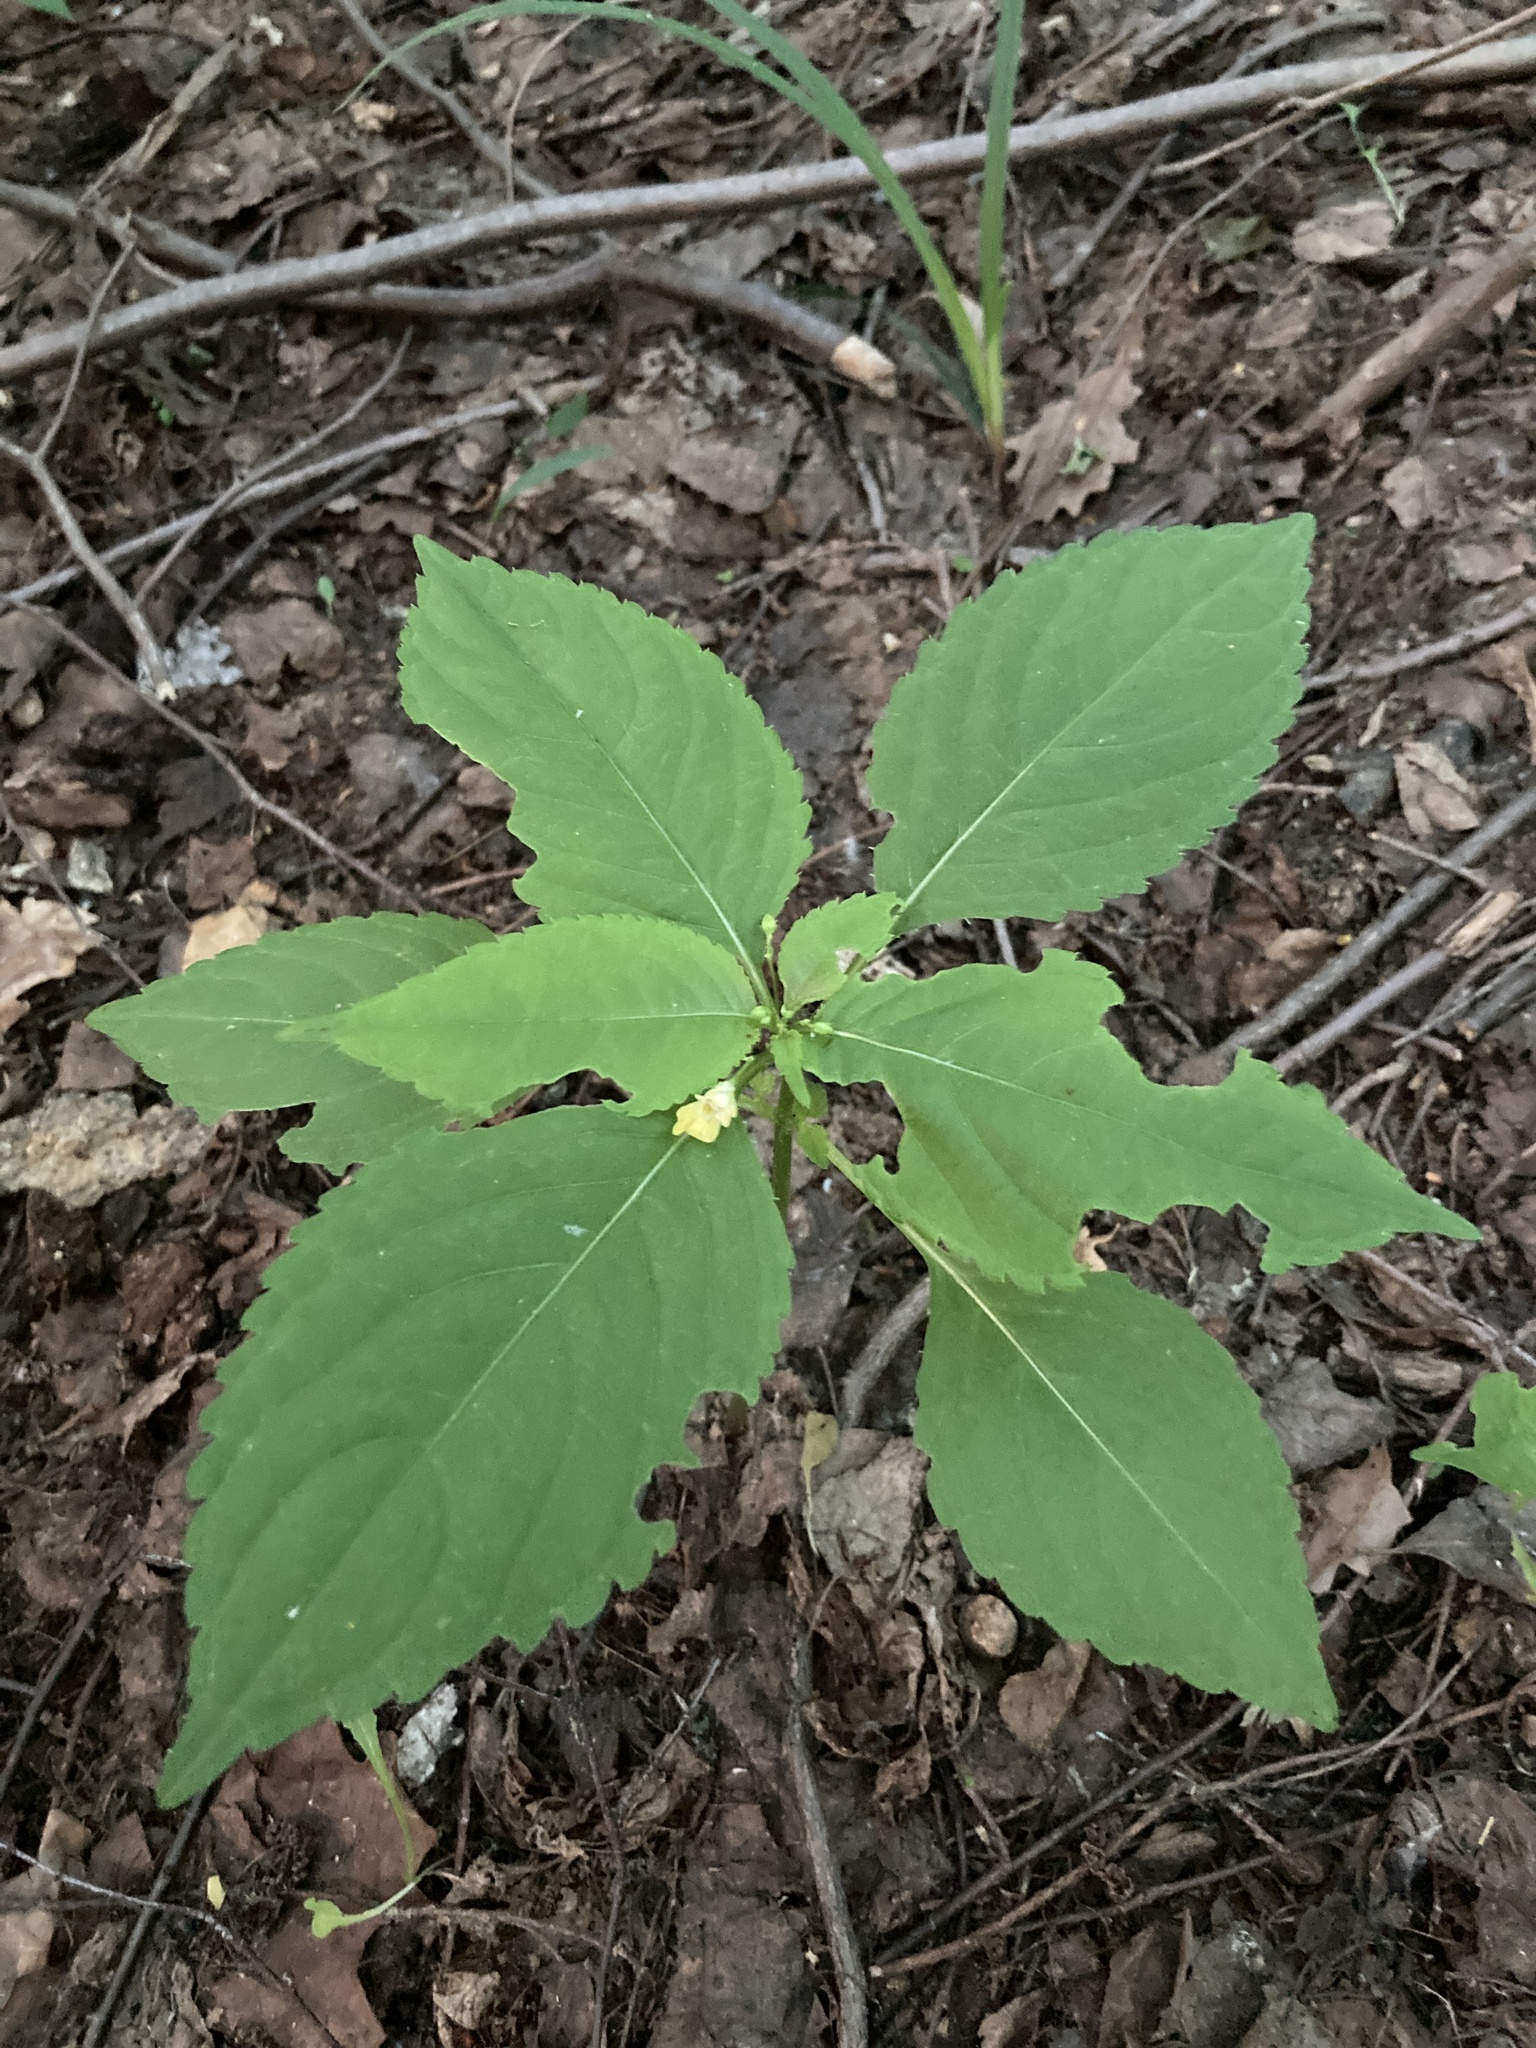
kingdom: Plantae
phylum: Tracheophyta
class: Magnoliopsida
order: Ericales
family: Balsaminaceae
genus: Impatiens
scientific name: Impatiens parviflora
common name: Small balsam
